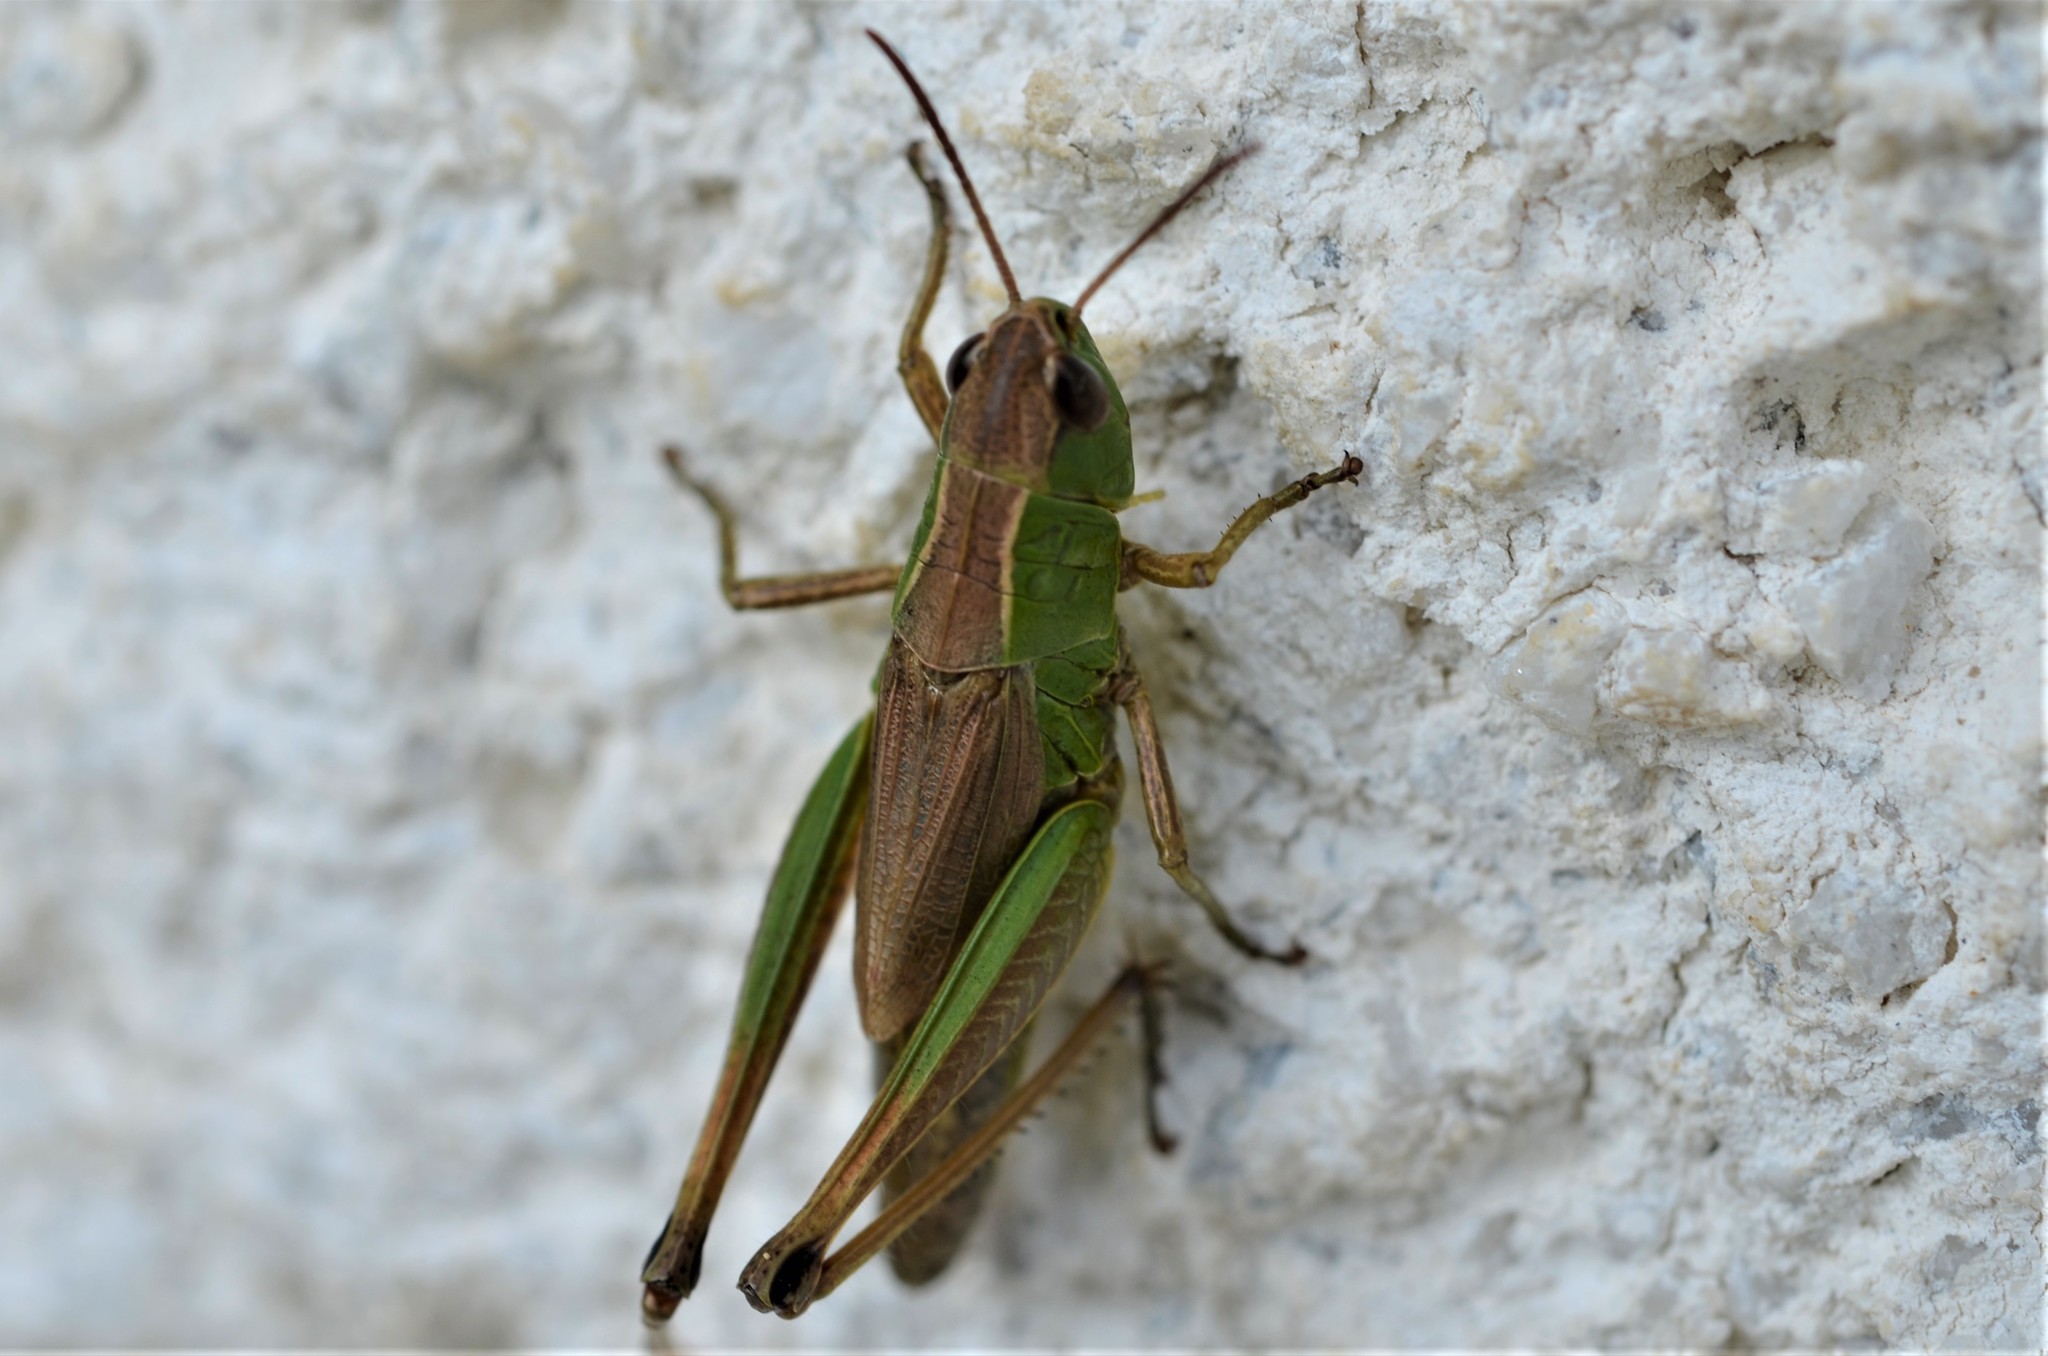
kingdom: Animalia
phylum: Arthropoda
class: Insecta
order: Orthoptera
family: Acrididae
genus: Pseudochorthippus
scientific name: Pseudochorthippus parallelus
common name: Meadow grasshopper
